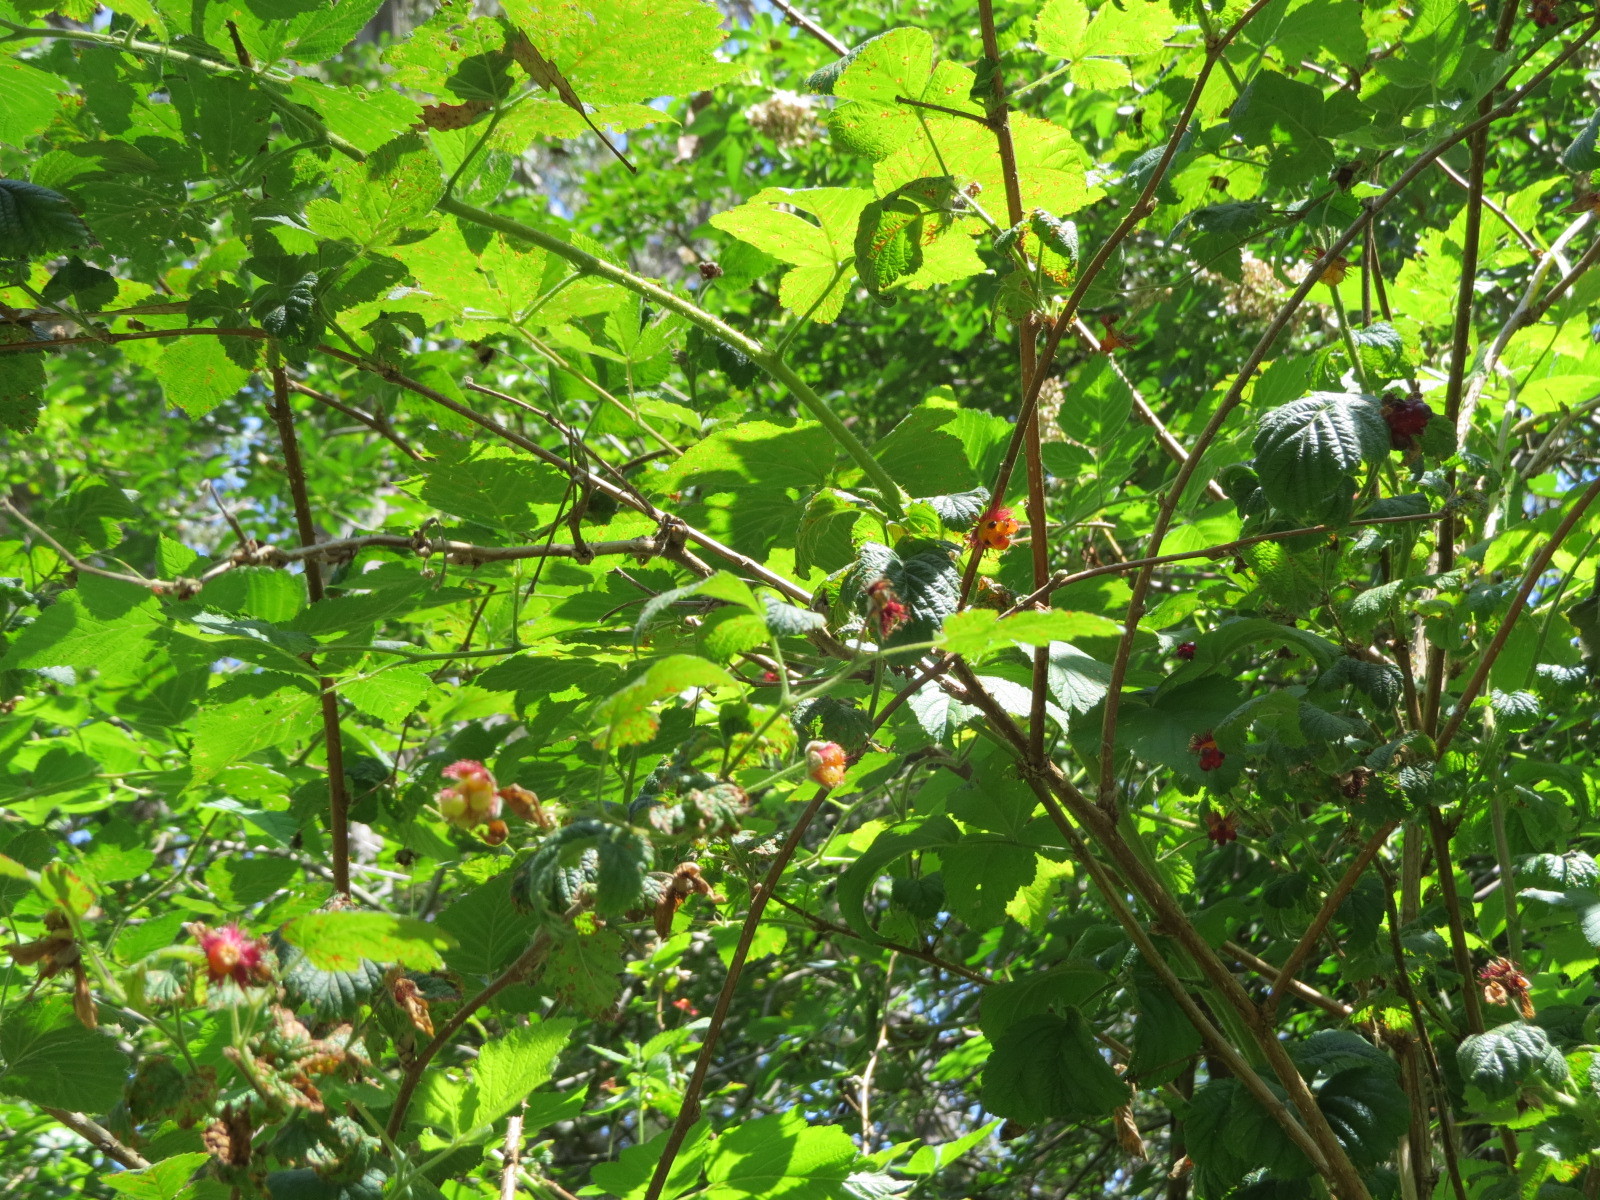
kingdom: Plantae
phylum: Tracheophyta
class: Magnoliopsida
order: Rosales
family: Rosaceae
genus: Rubus
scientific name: Rubus spectabilis
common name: Salmonberry
